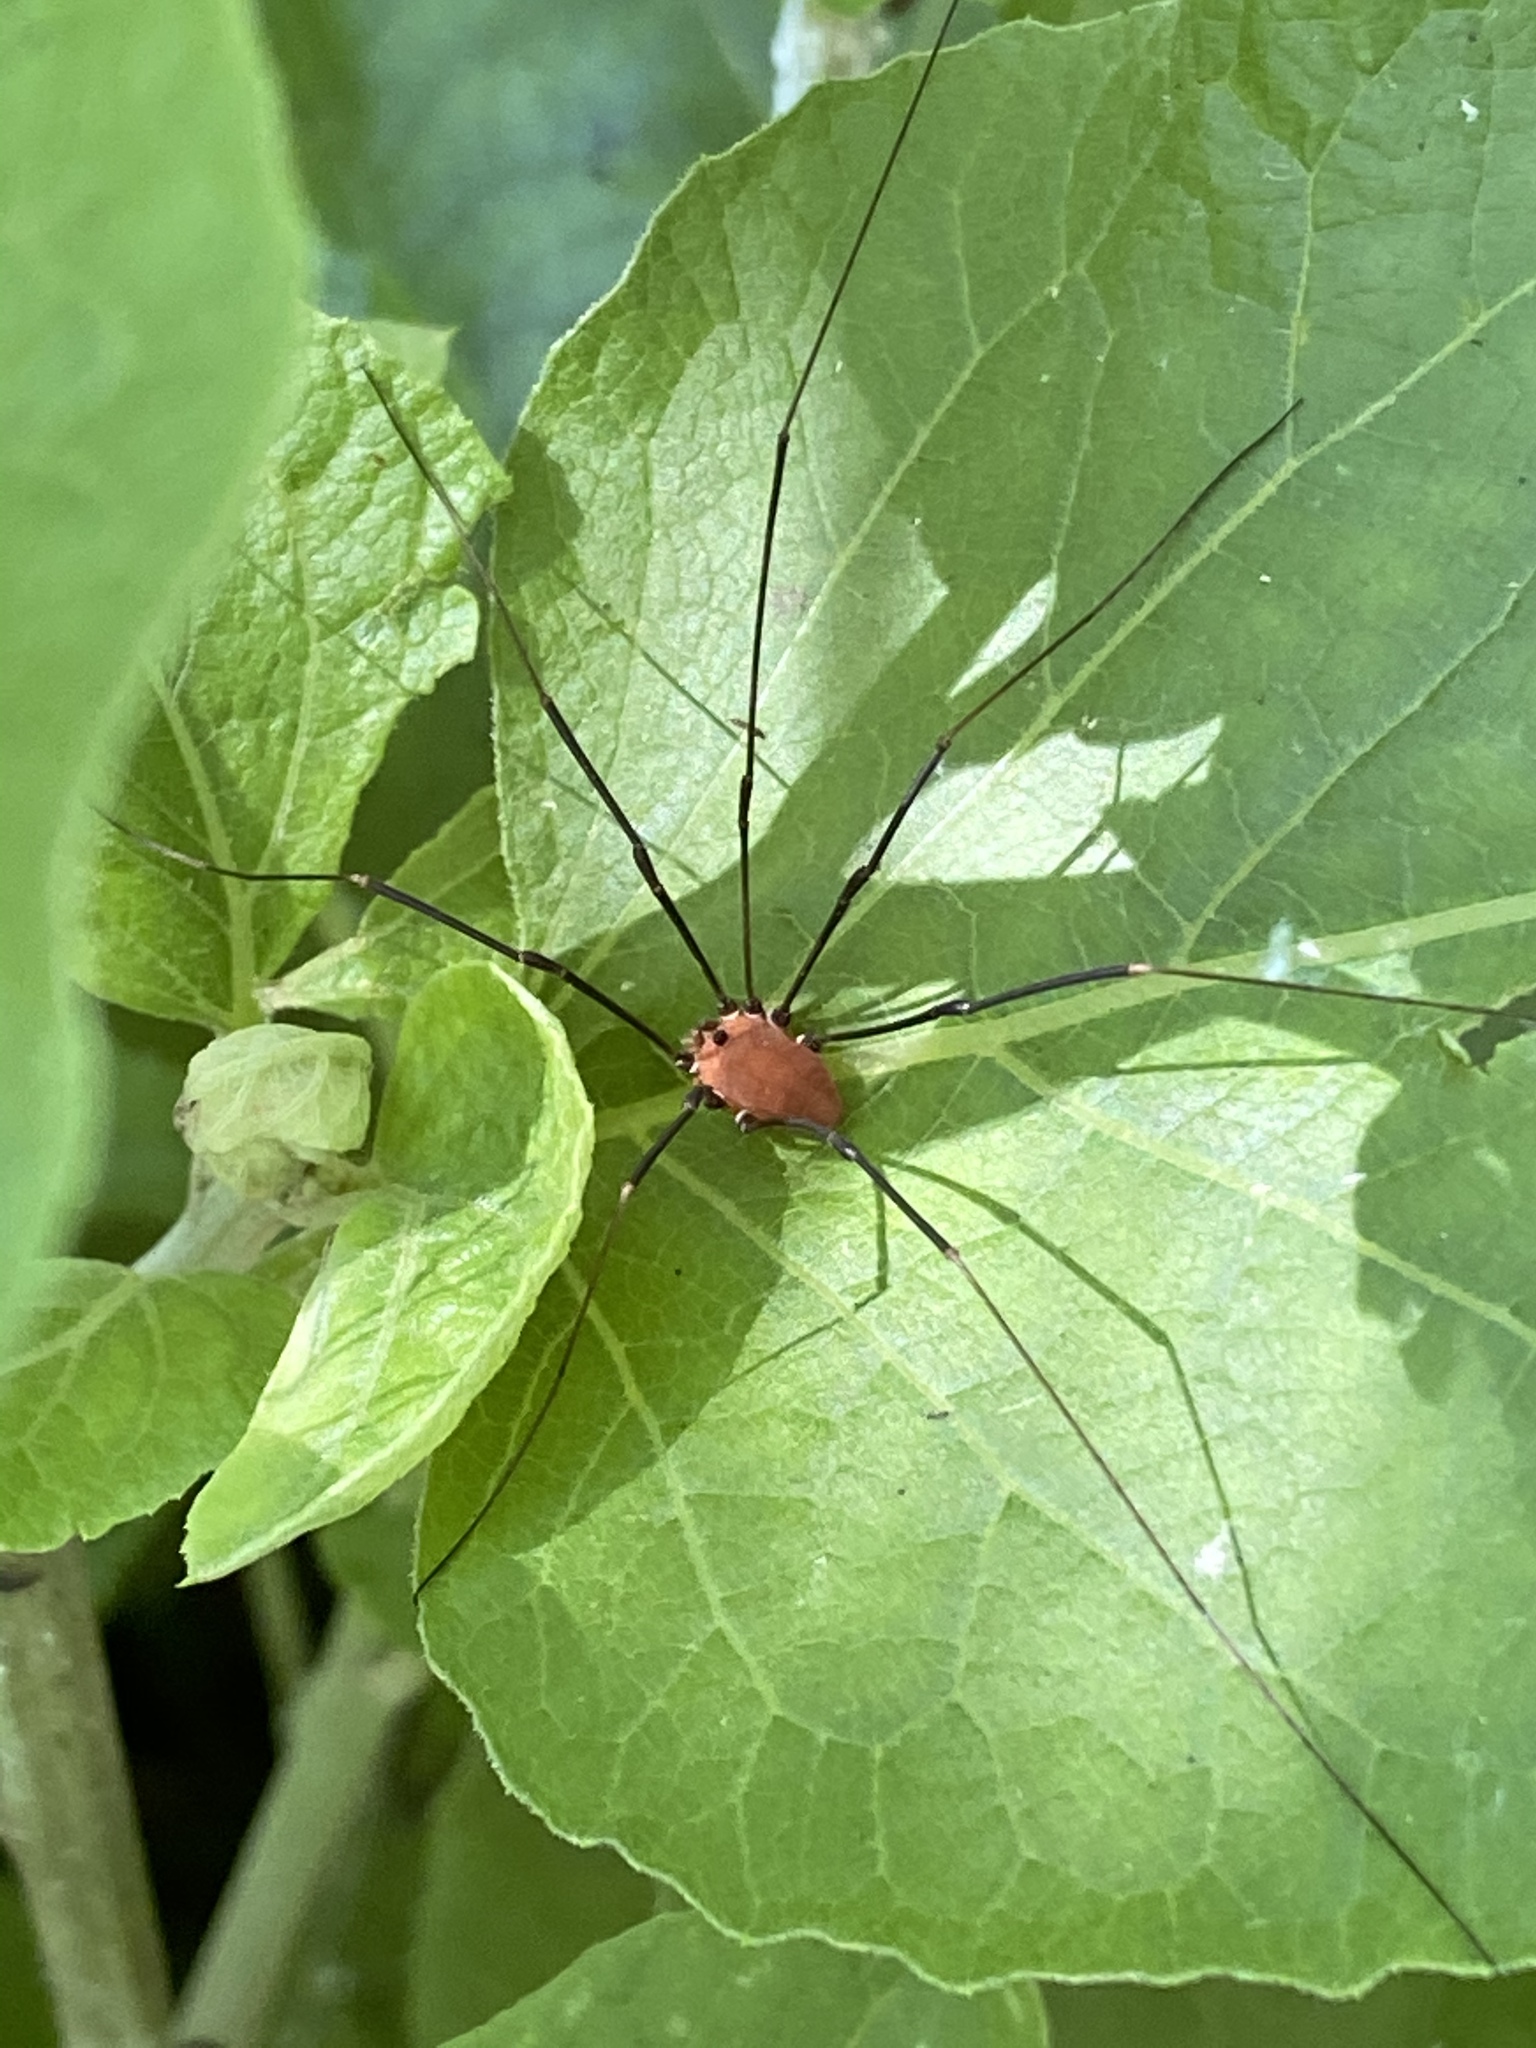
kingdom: Animalia
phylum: Arthropoda
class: Arachnida
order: Opiliones
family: Sclerosomatidae
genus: Leiobunum
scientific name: Leiobunum euserratipalpe
